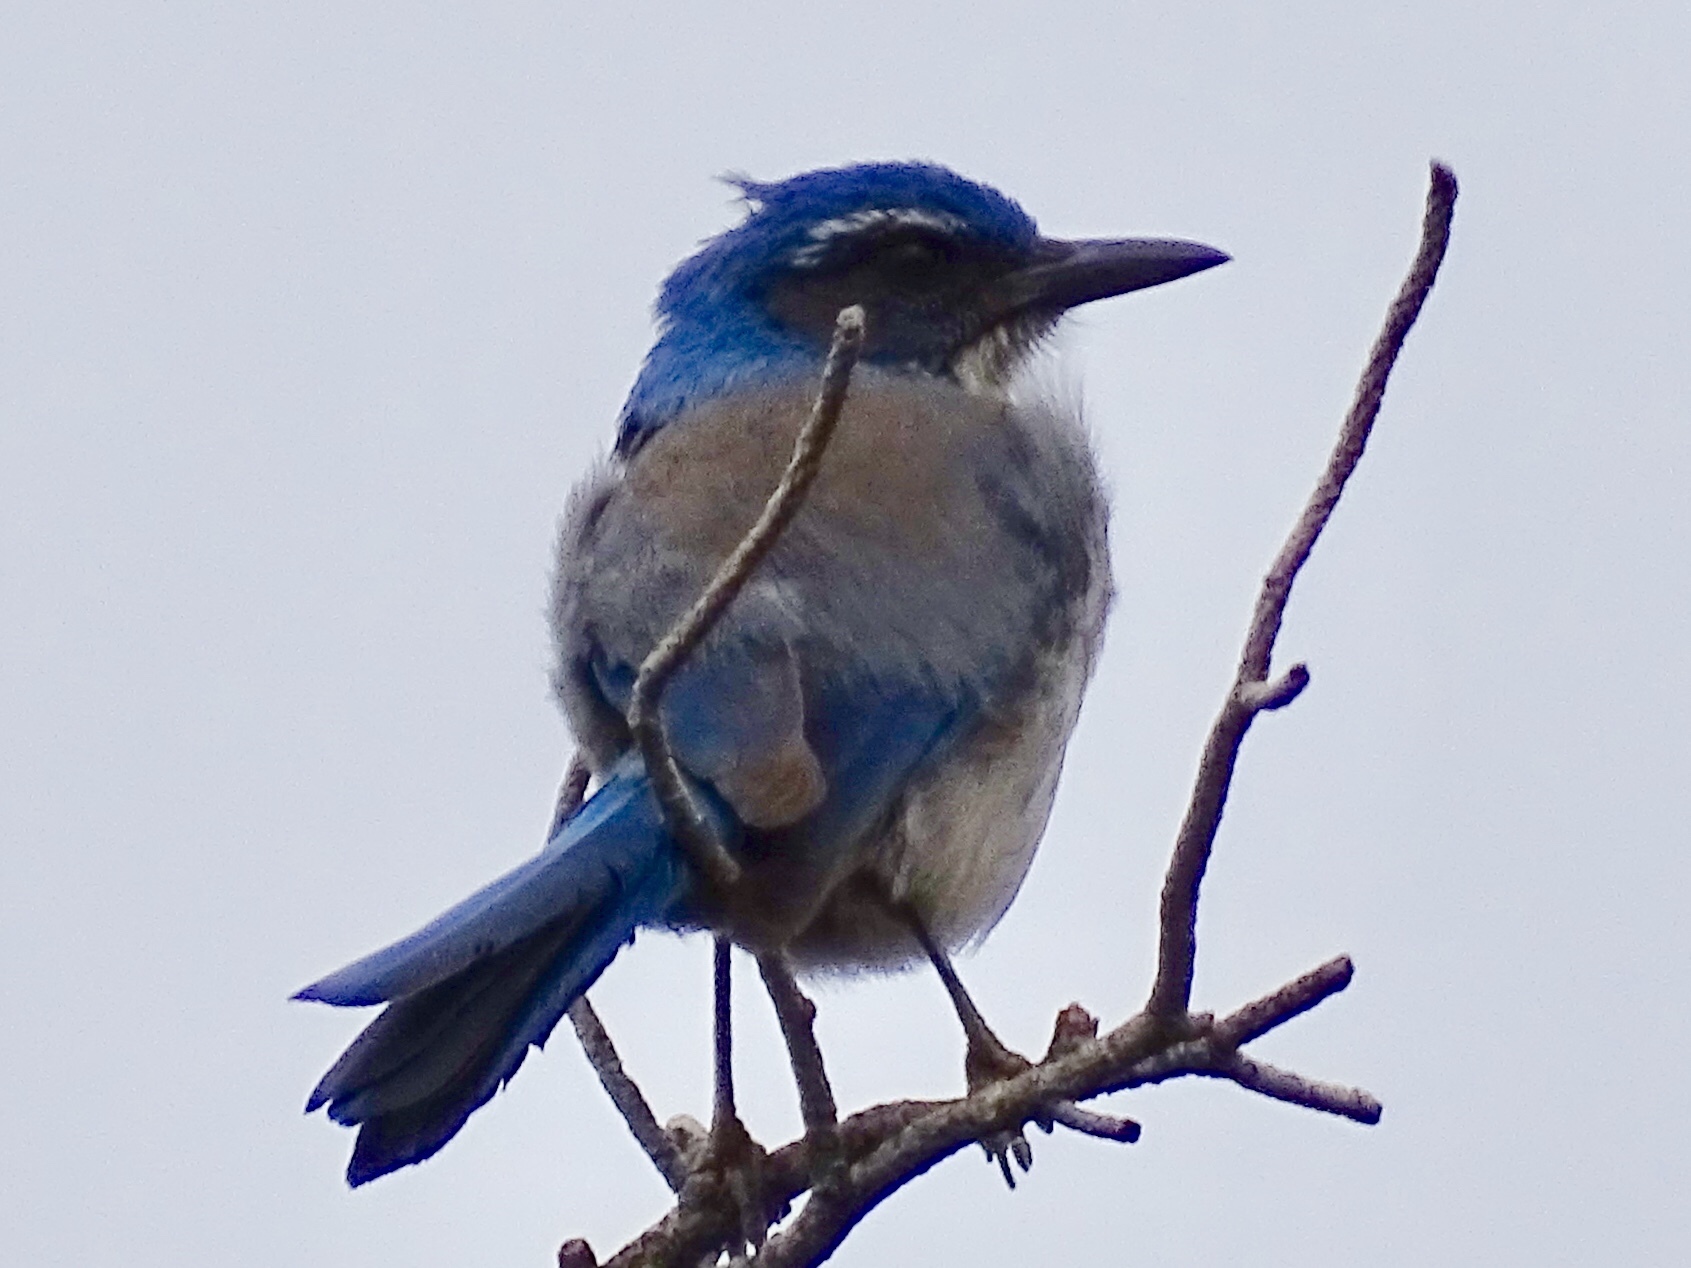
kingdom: Animalia
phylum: Chordata
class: Aves
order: Passeriformes
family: Corvidae
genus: Aphelocoma
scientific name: Aphelocoma woodhouseii
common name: Woodhouse's scrub-jay
